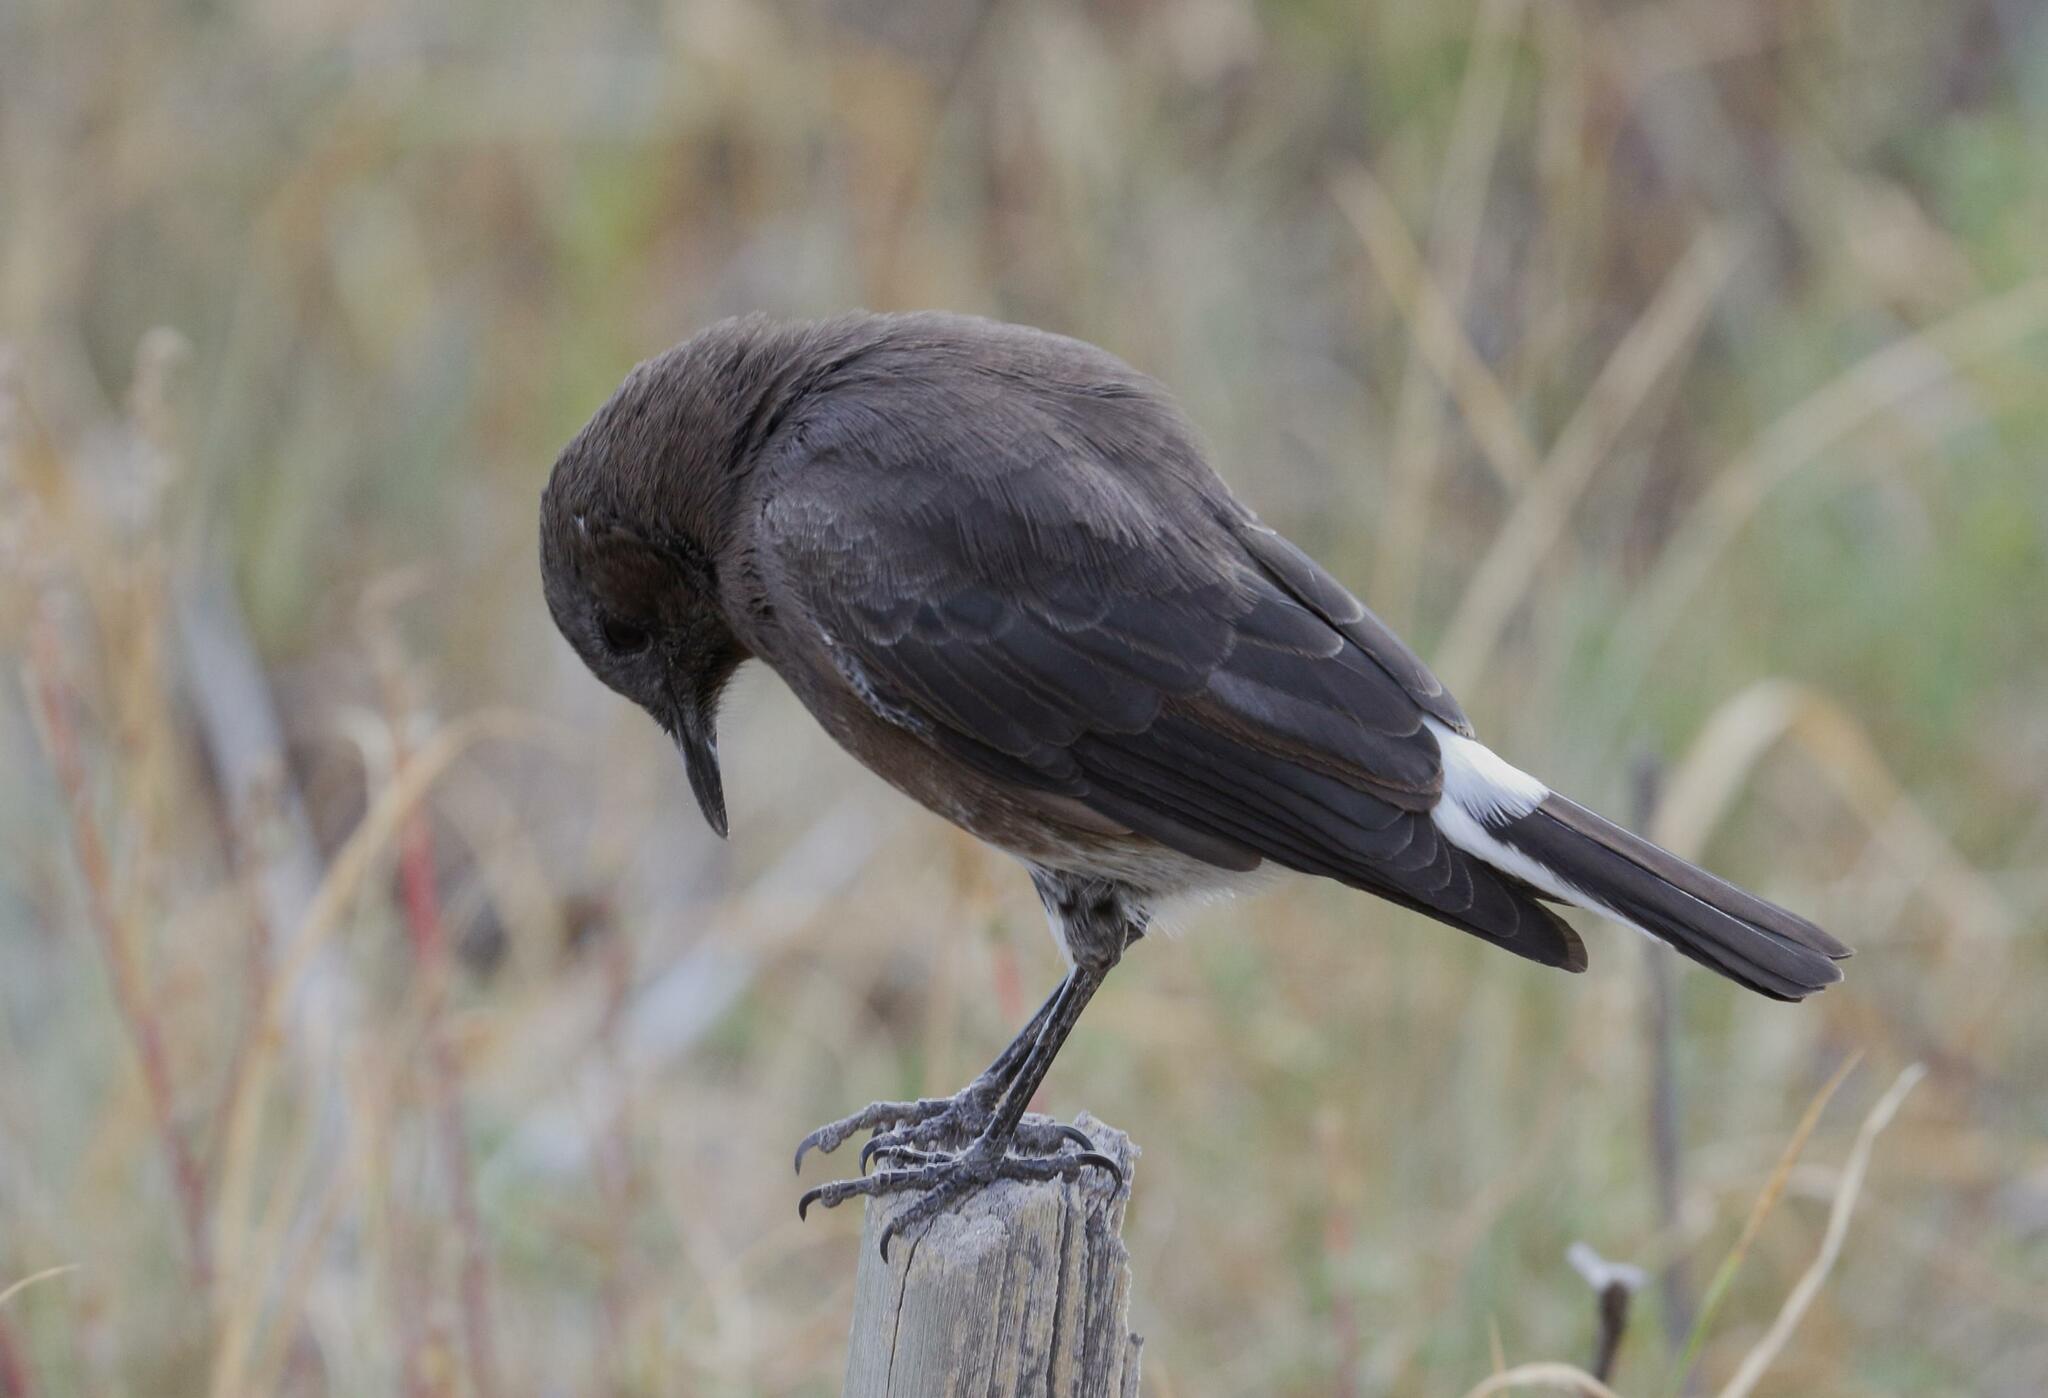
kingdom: Animalia
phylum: Chordata
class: Aves
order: Passeriformes
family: Muscicapidae
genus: Oenanthe
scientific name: Oenanthe monticola
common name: Mountain wheatear
